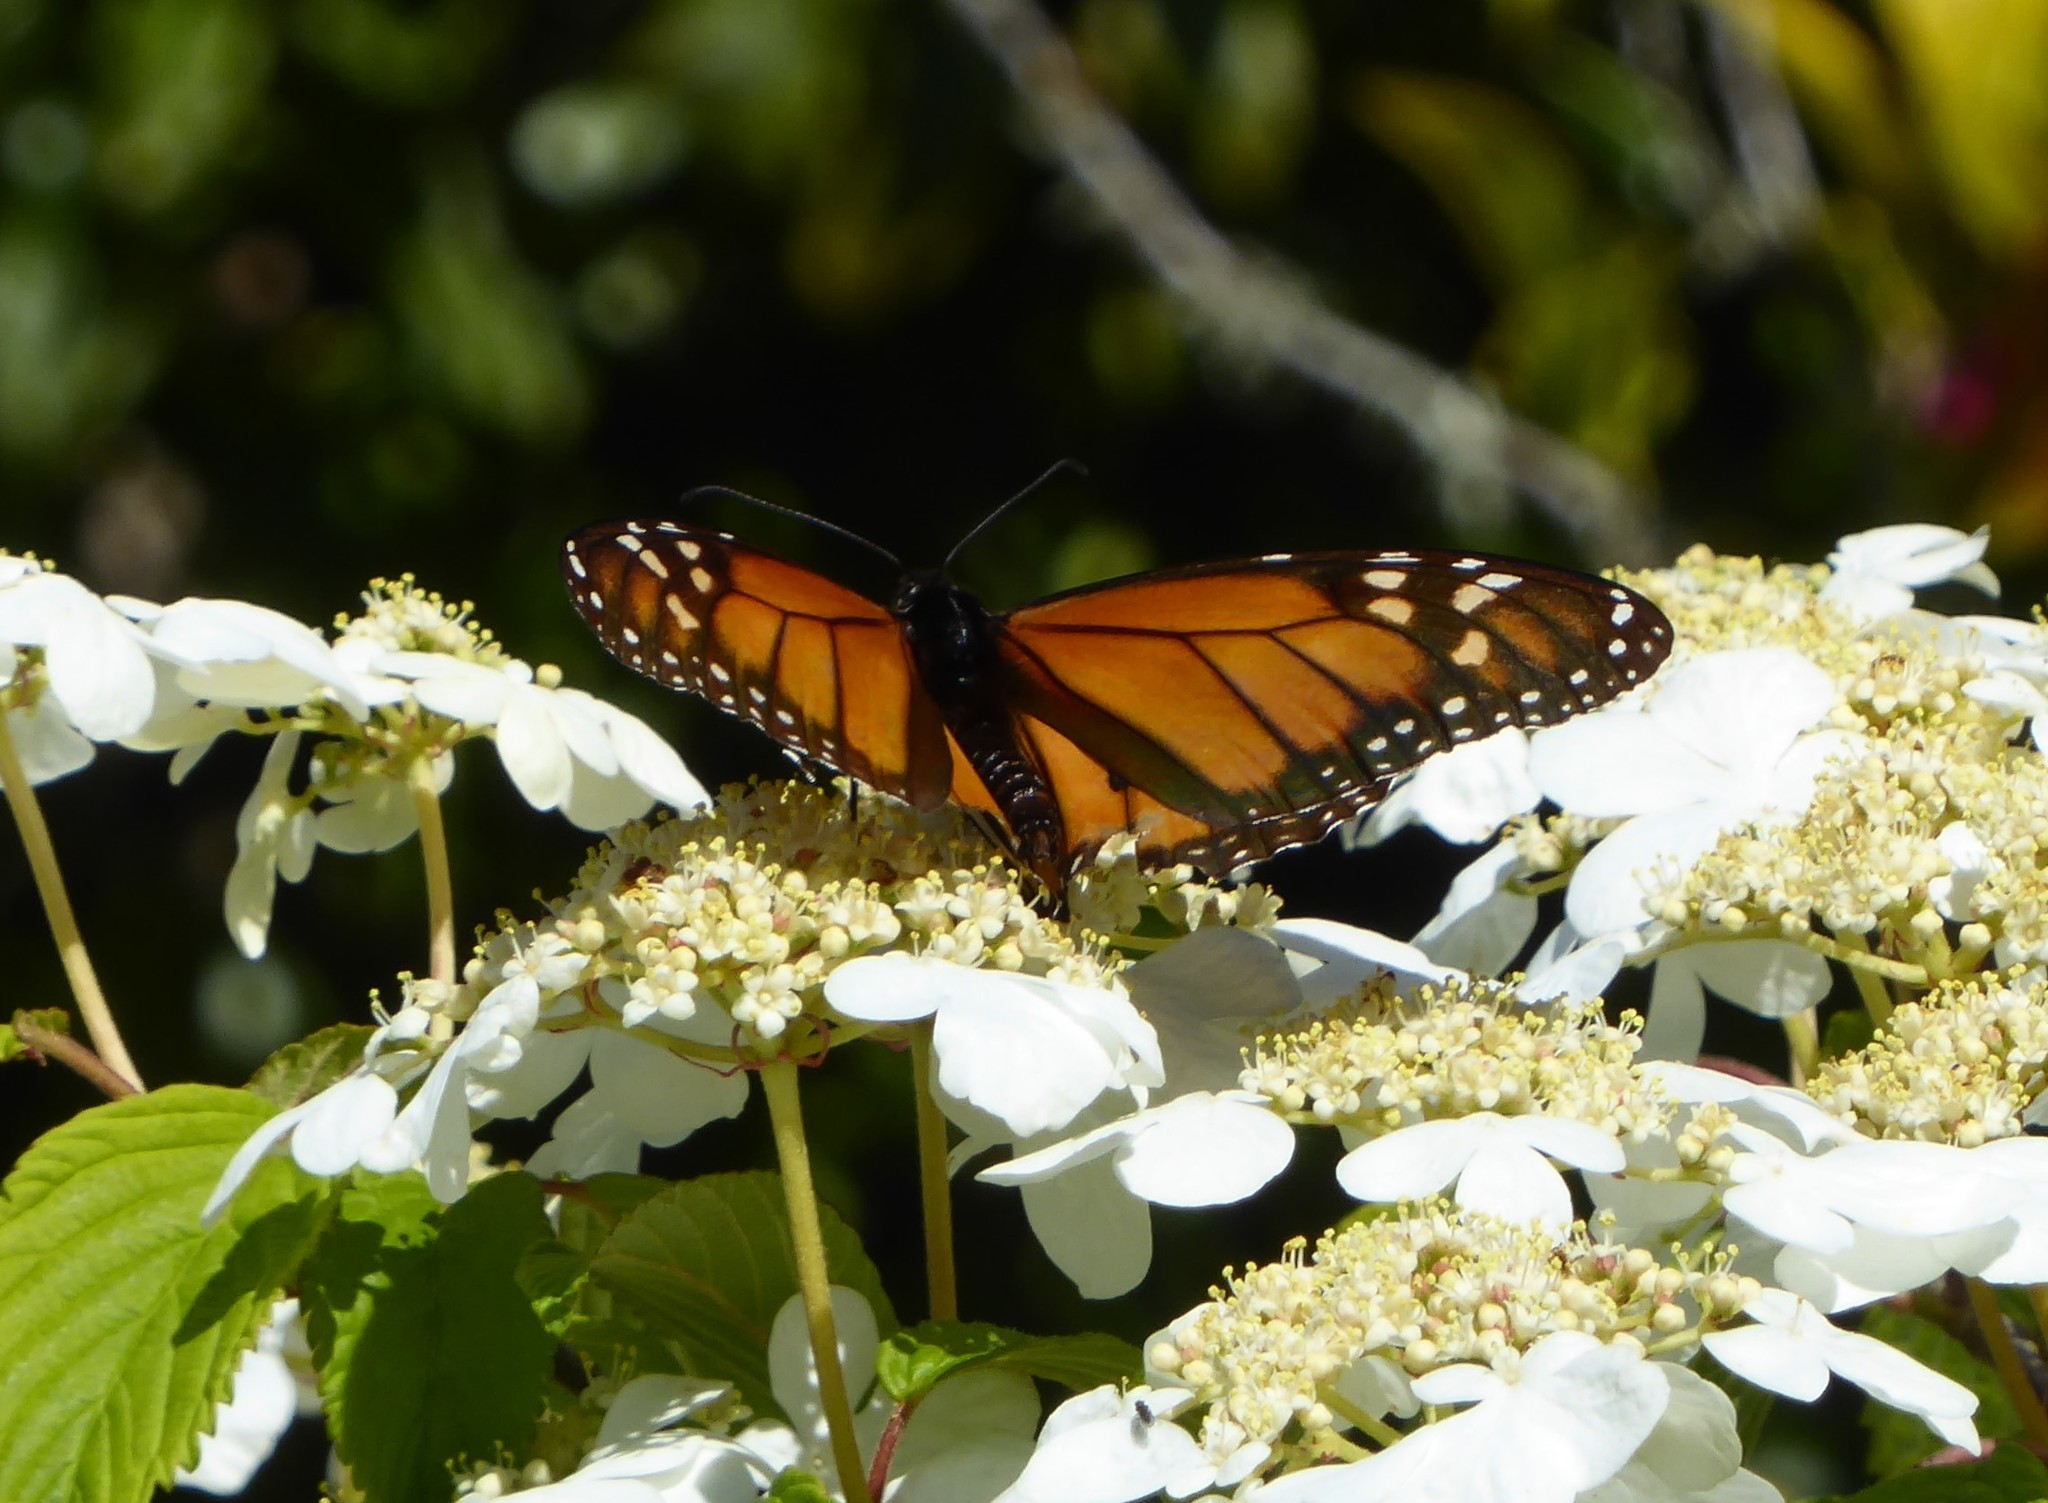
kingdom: Animalia
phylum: Arthropoda
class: Insecta
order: Lepidoptera
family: Nymphalidae
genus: Danaus
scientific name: Danaus plexippus
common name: Monarch
